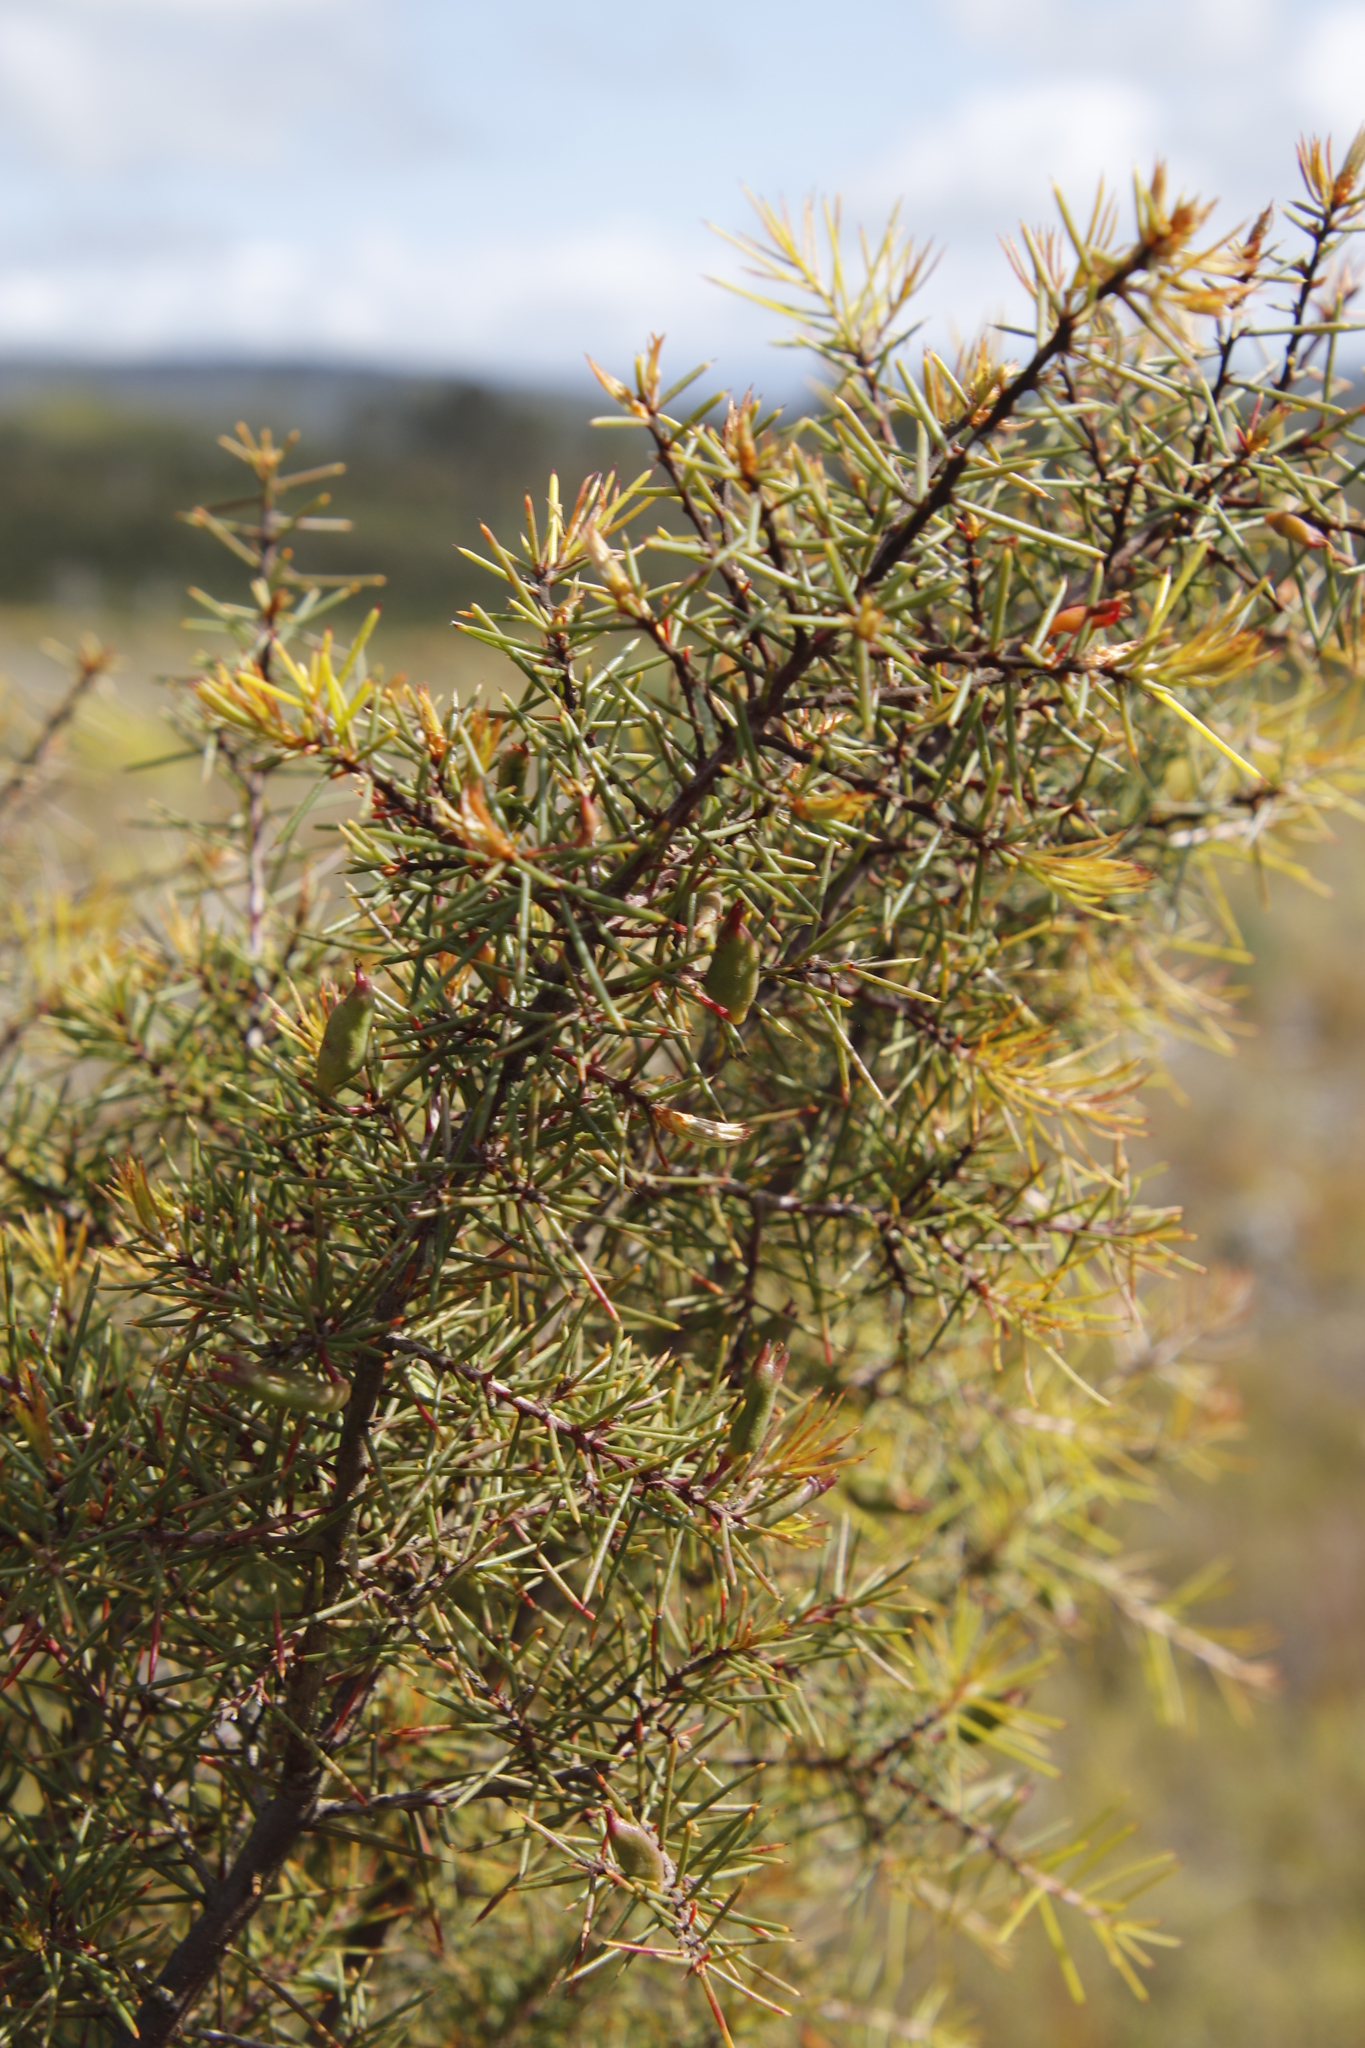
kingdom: Plantae
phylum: Tracheophyta
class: Magnoliopsida
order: Proteales
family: Proteaceae
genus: Hakea
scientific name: Hakea sericea
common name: Needle bush
